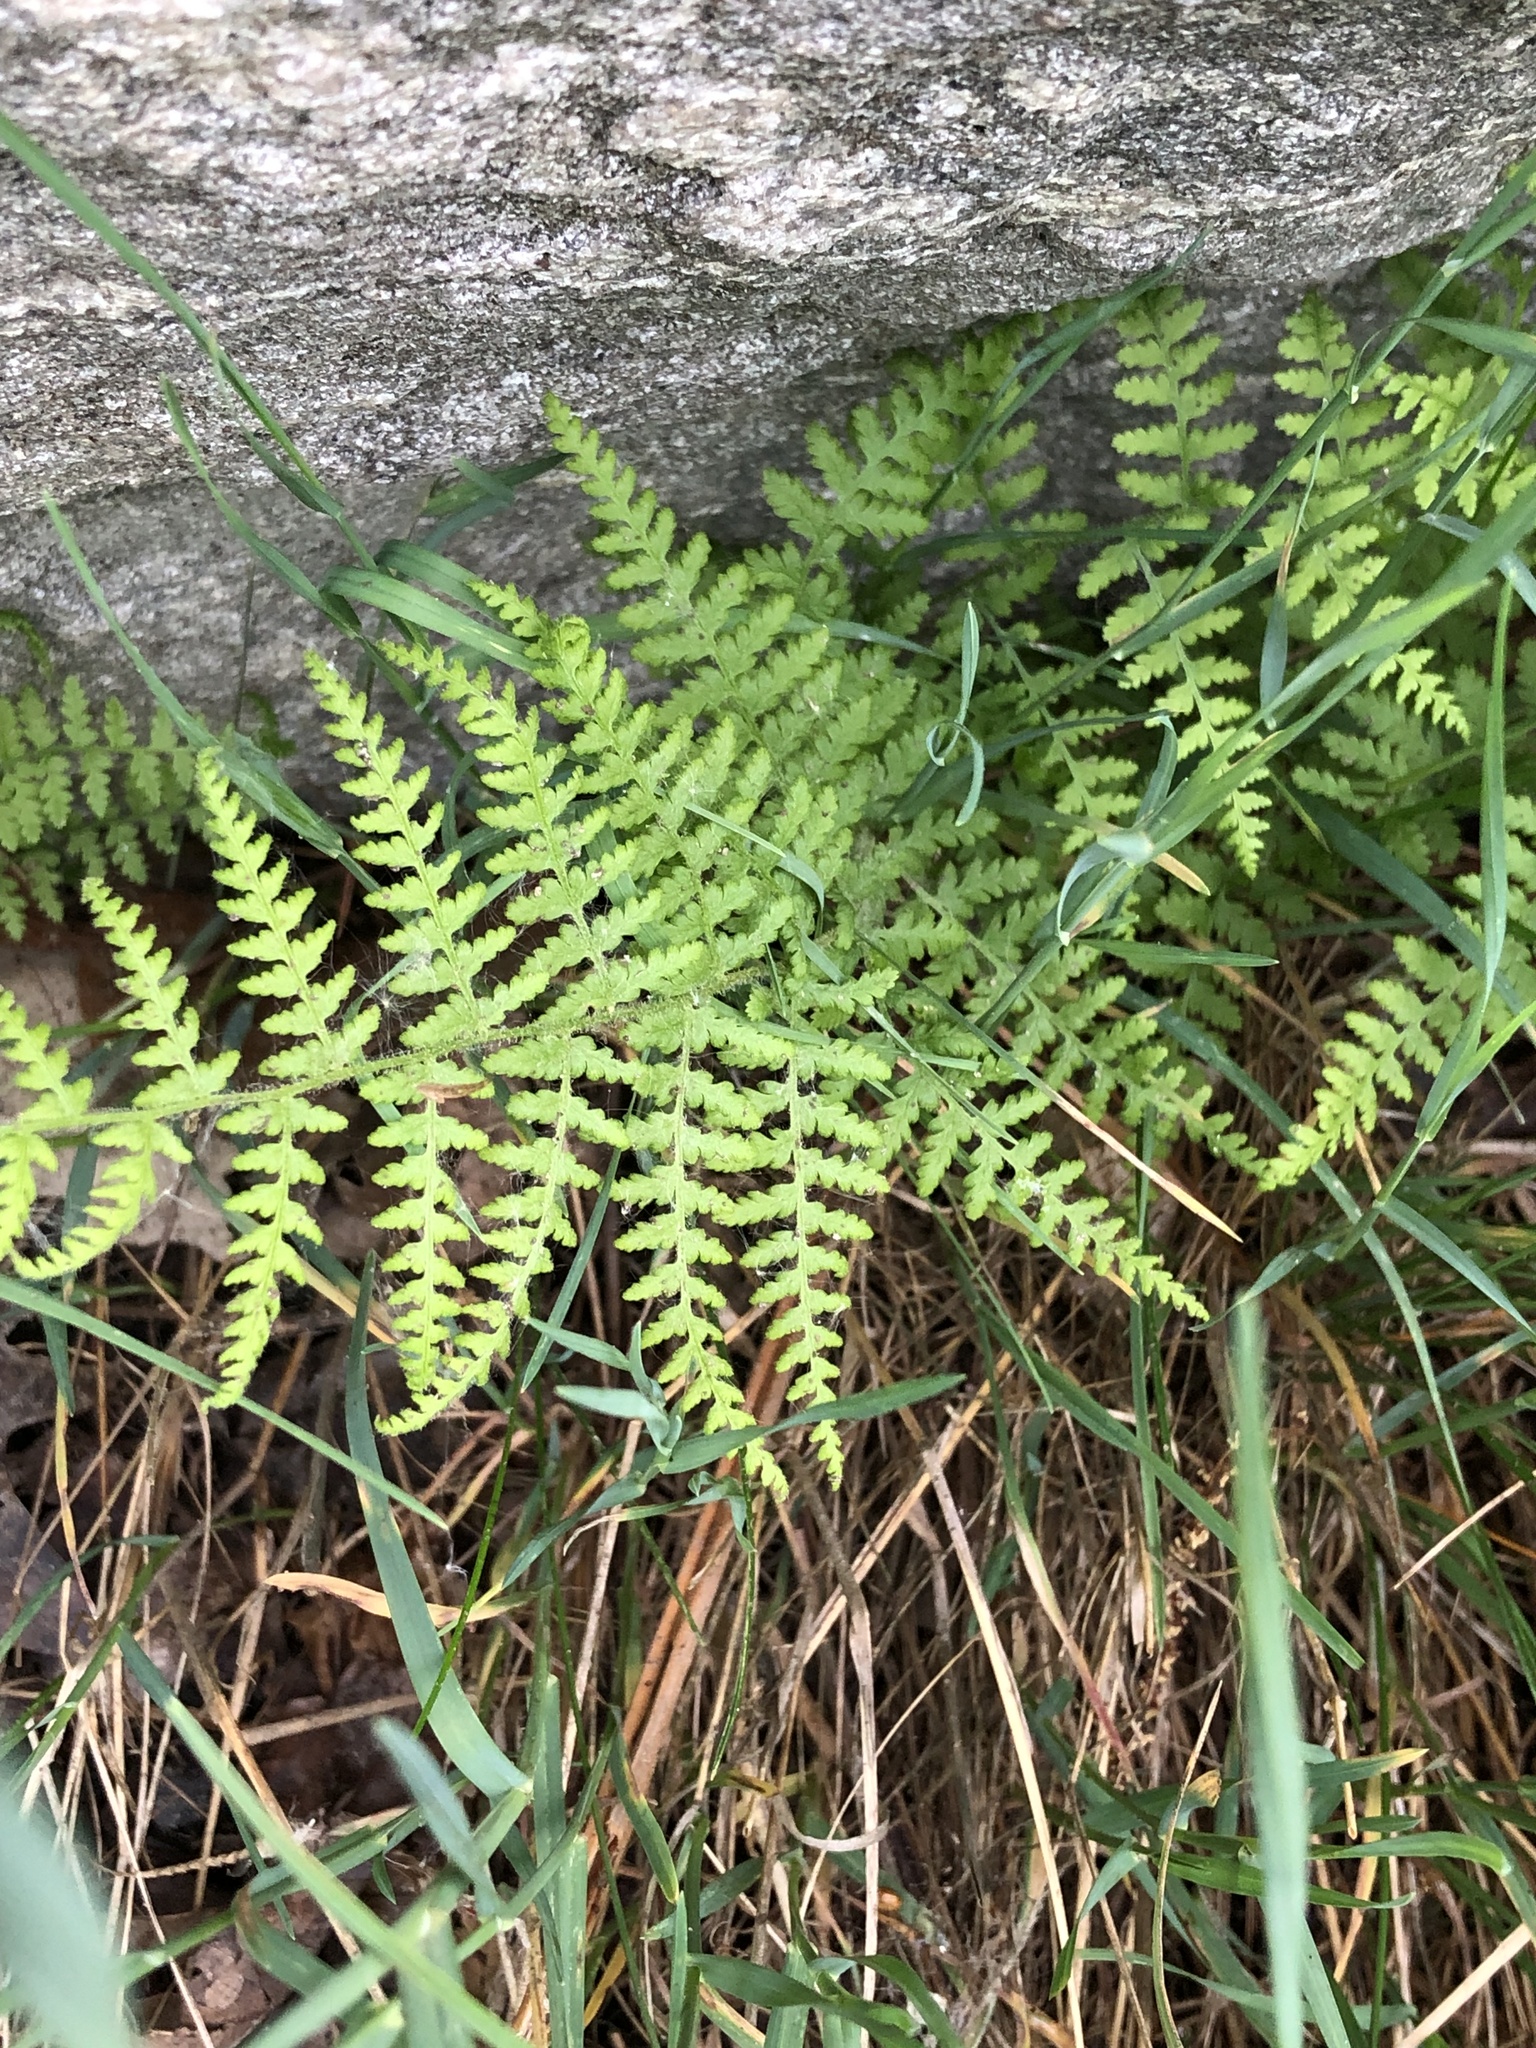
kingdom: Plantae
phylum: Tracheophyta
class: Polypodiopsida
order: Polypodiales
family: Dennstaedtiaceae
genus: Sitobolium
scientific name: Sitobolium punctilobum
